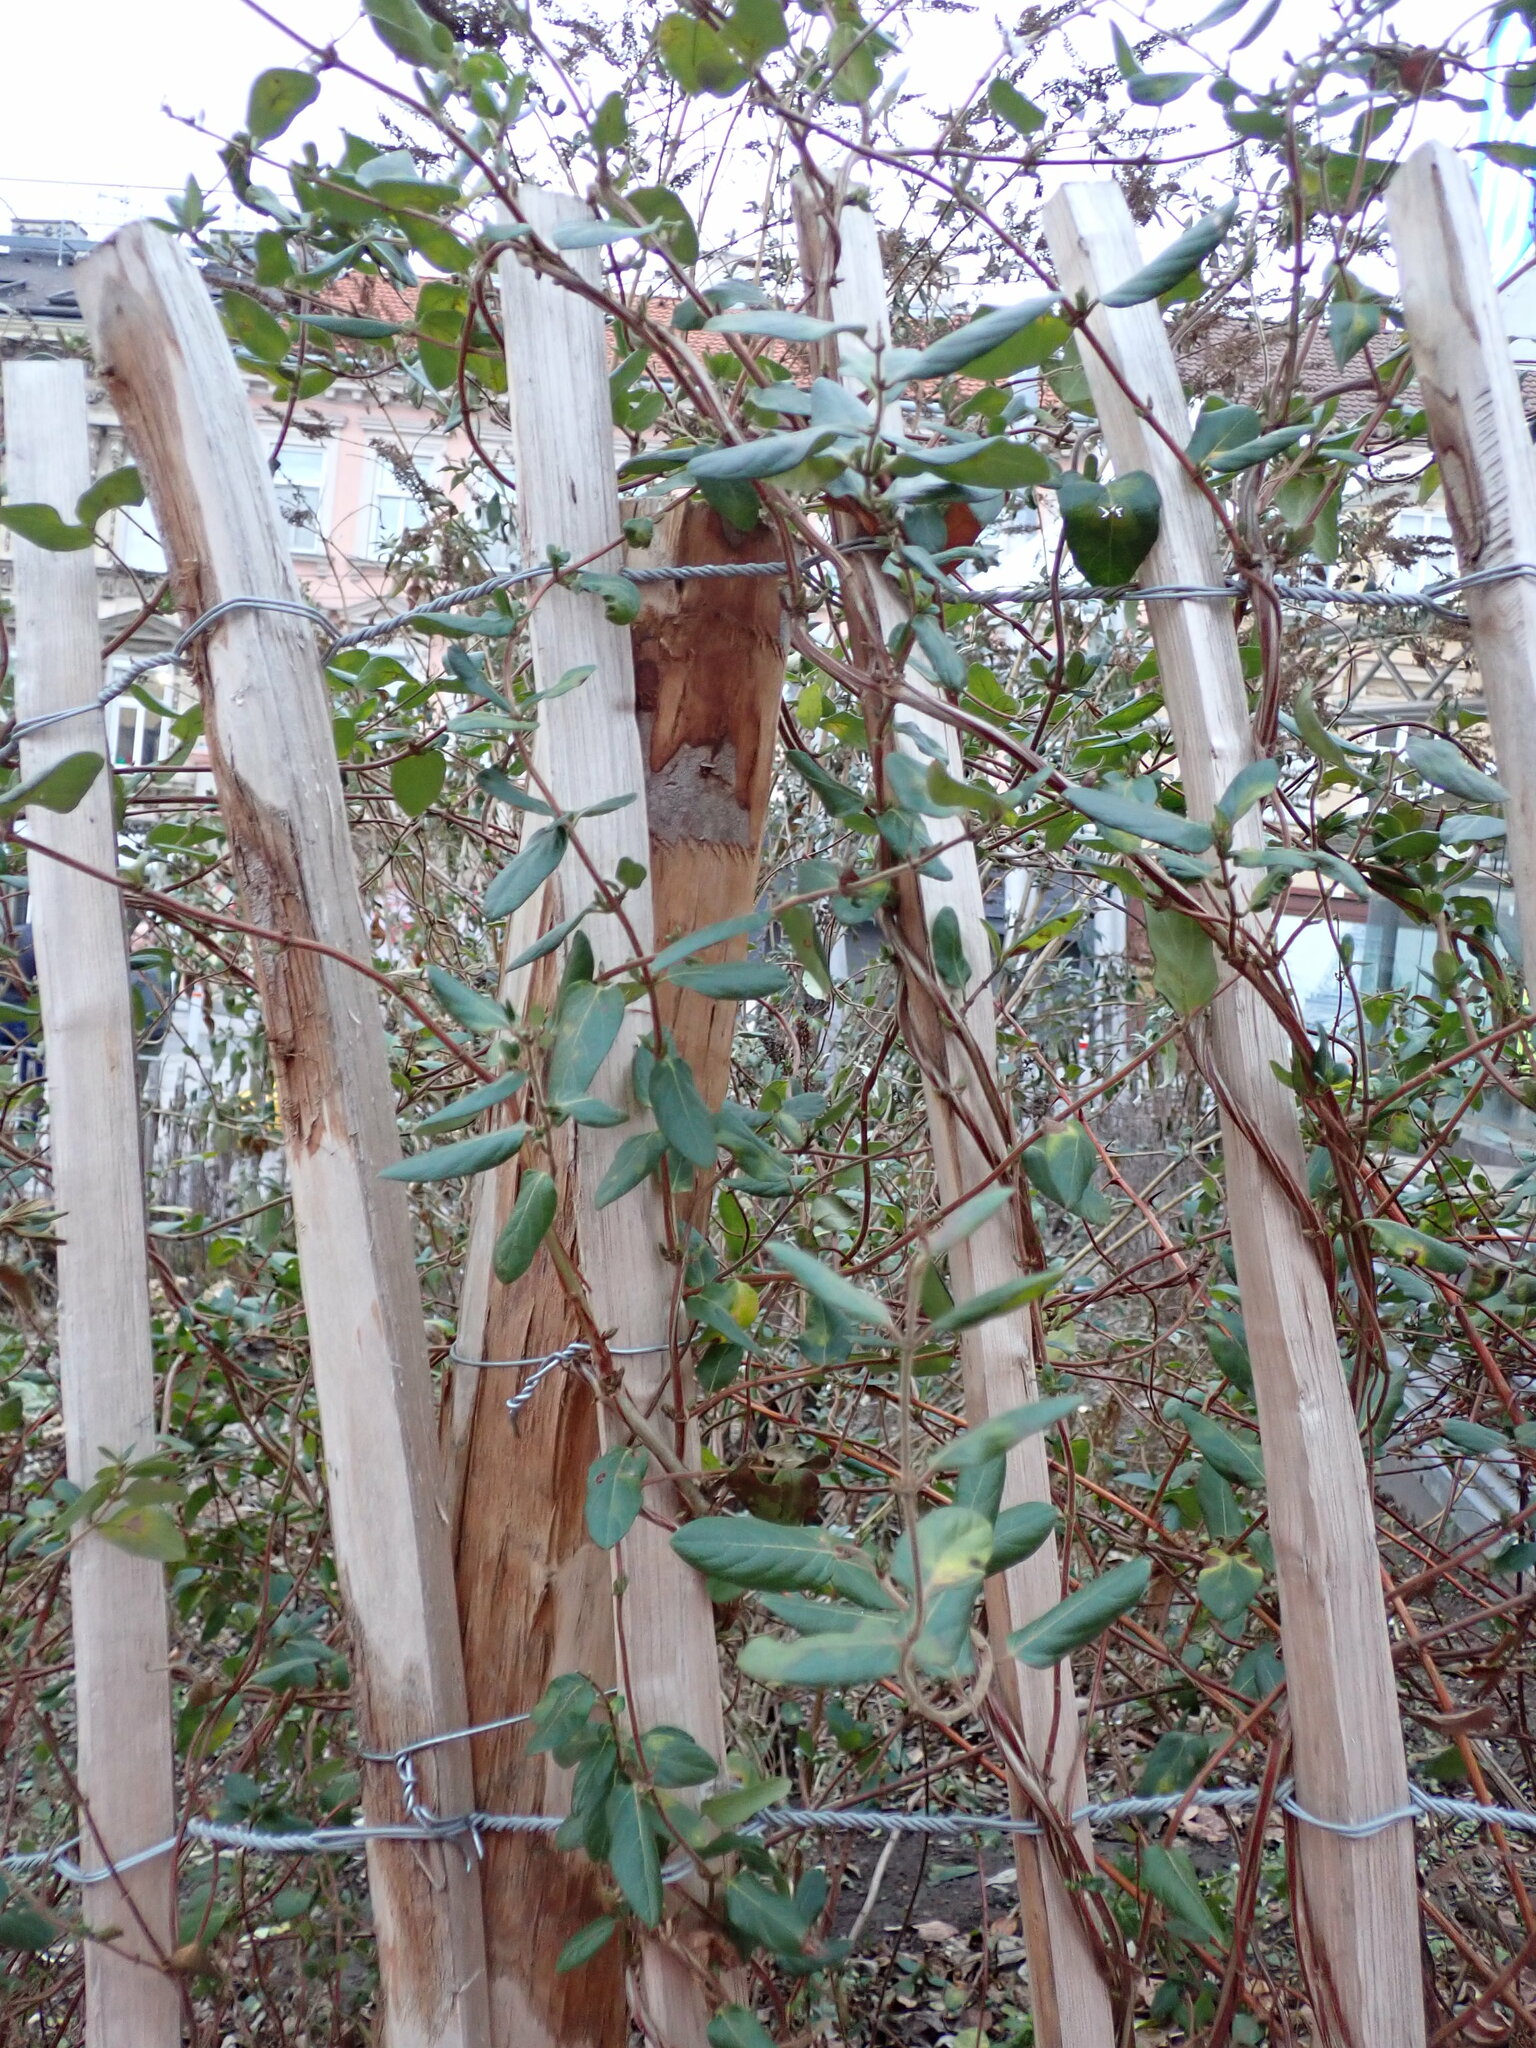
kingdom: Plantae
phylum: Tracheophyta
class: Magnoliopsida
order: Dipsacales
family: Caprifoliaceae
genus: Lonicera
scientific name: Lonicera japonica
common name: Japanese honeysuckle
